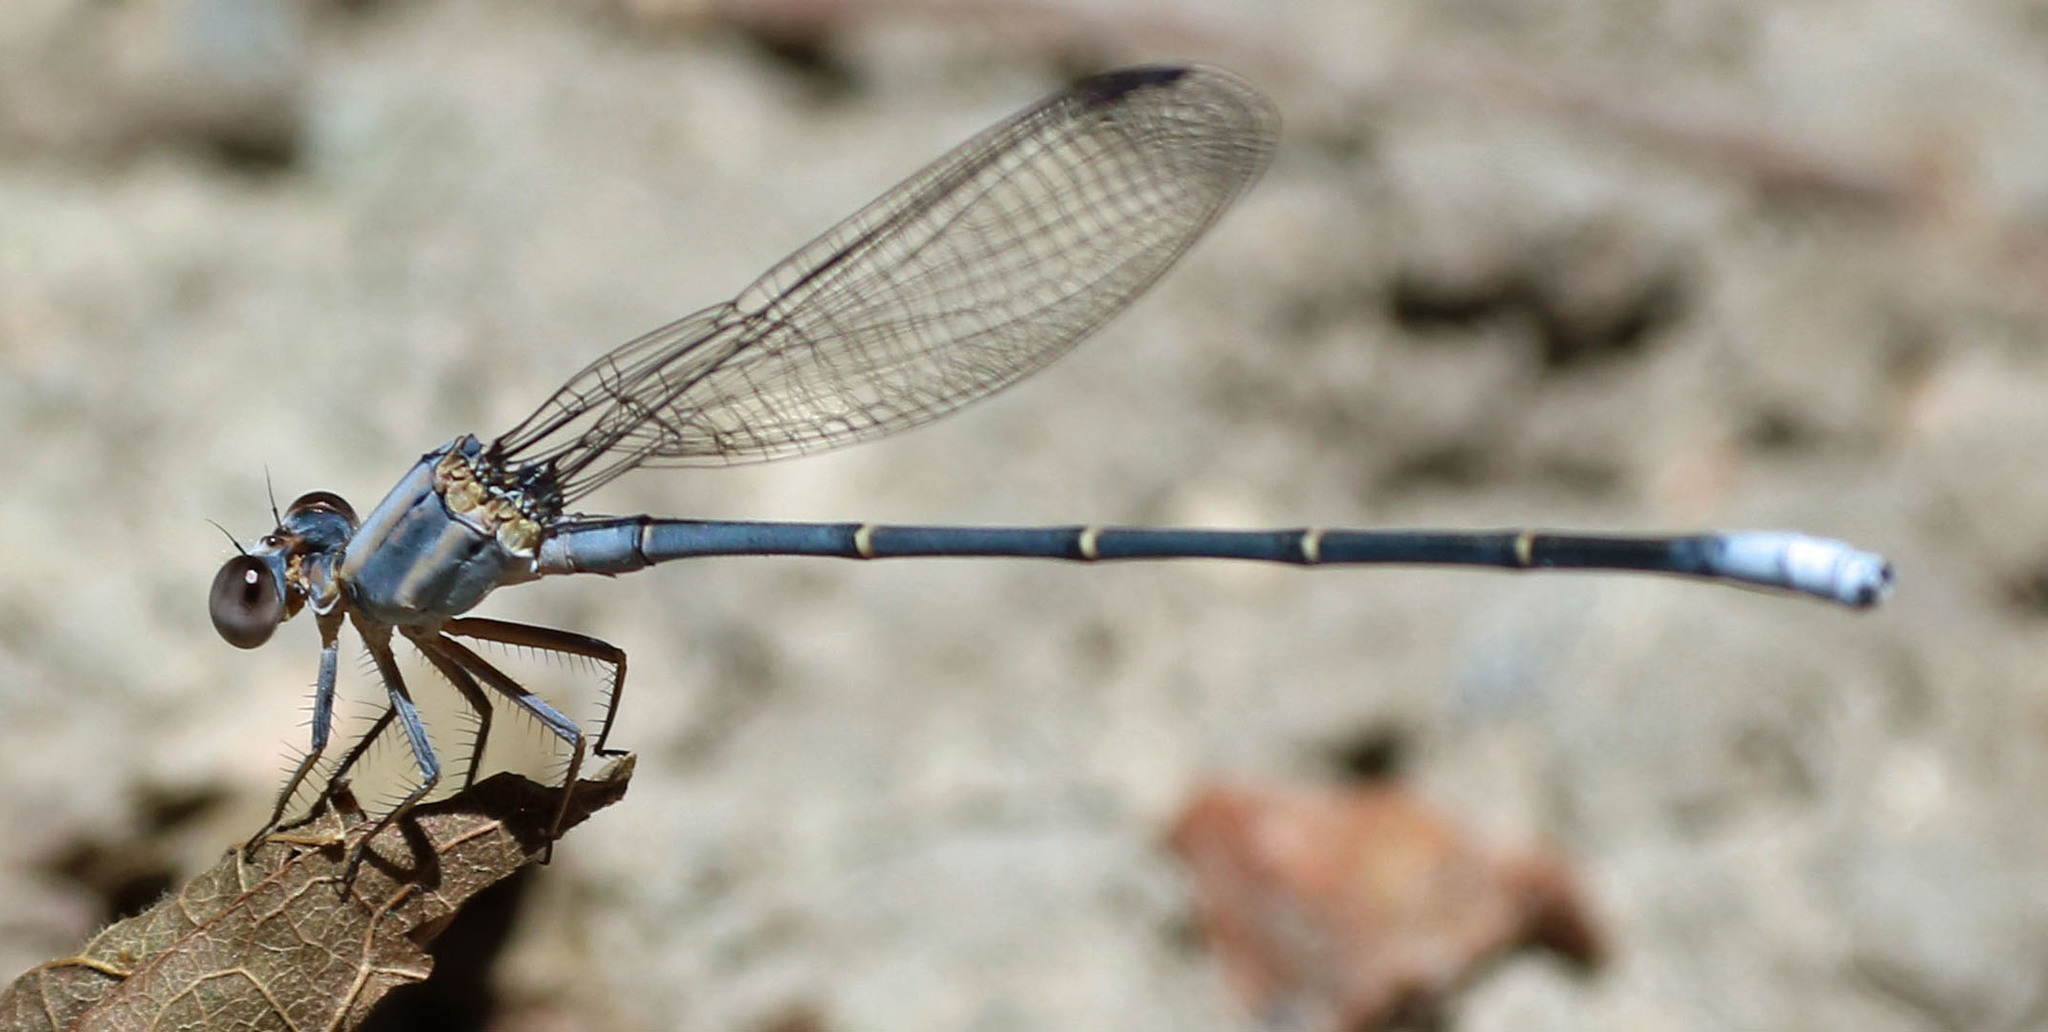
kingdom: Animalia
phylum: Arthropoda
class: Insecta
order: Odonata
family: Coenagrionidae
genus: Argia
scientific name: Argia moesta
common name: Powdered dancer
